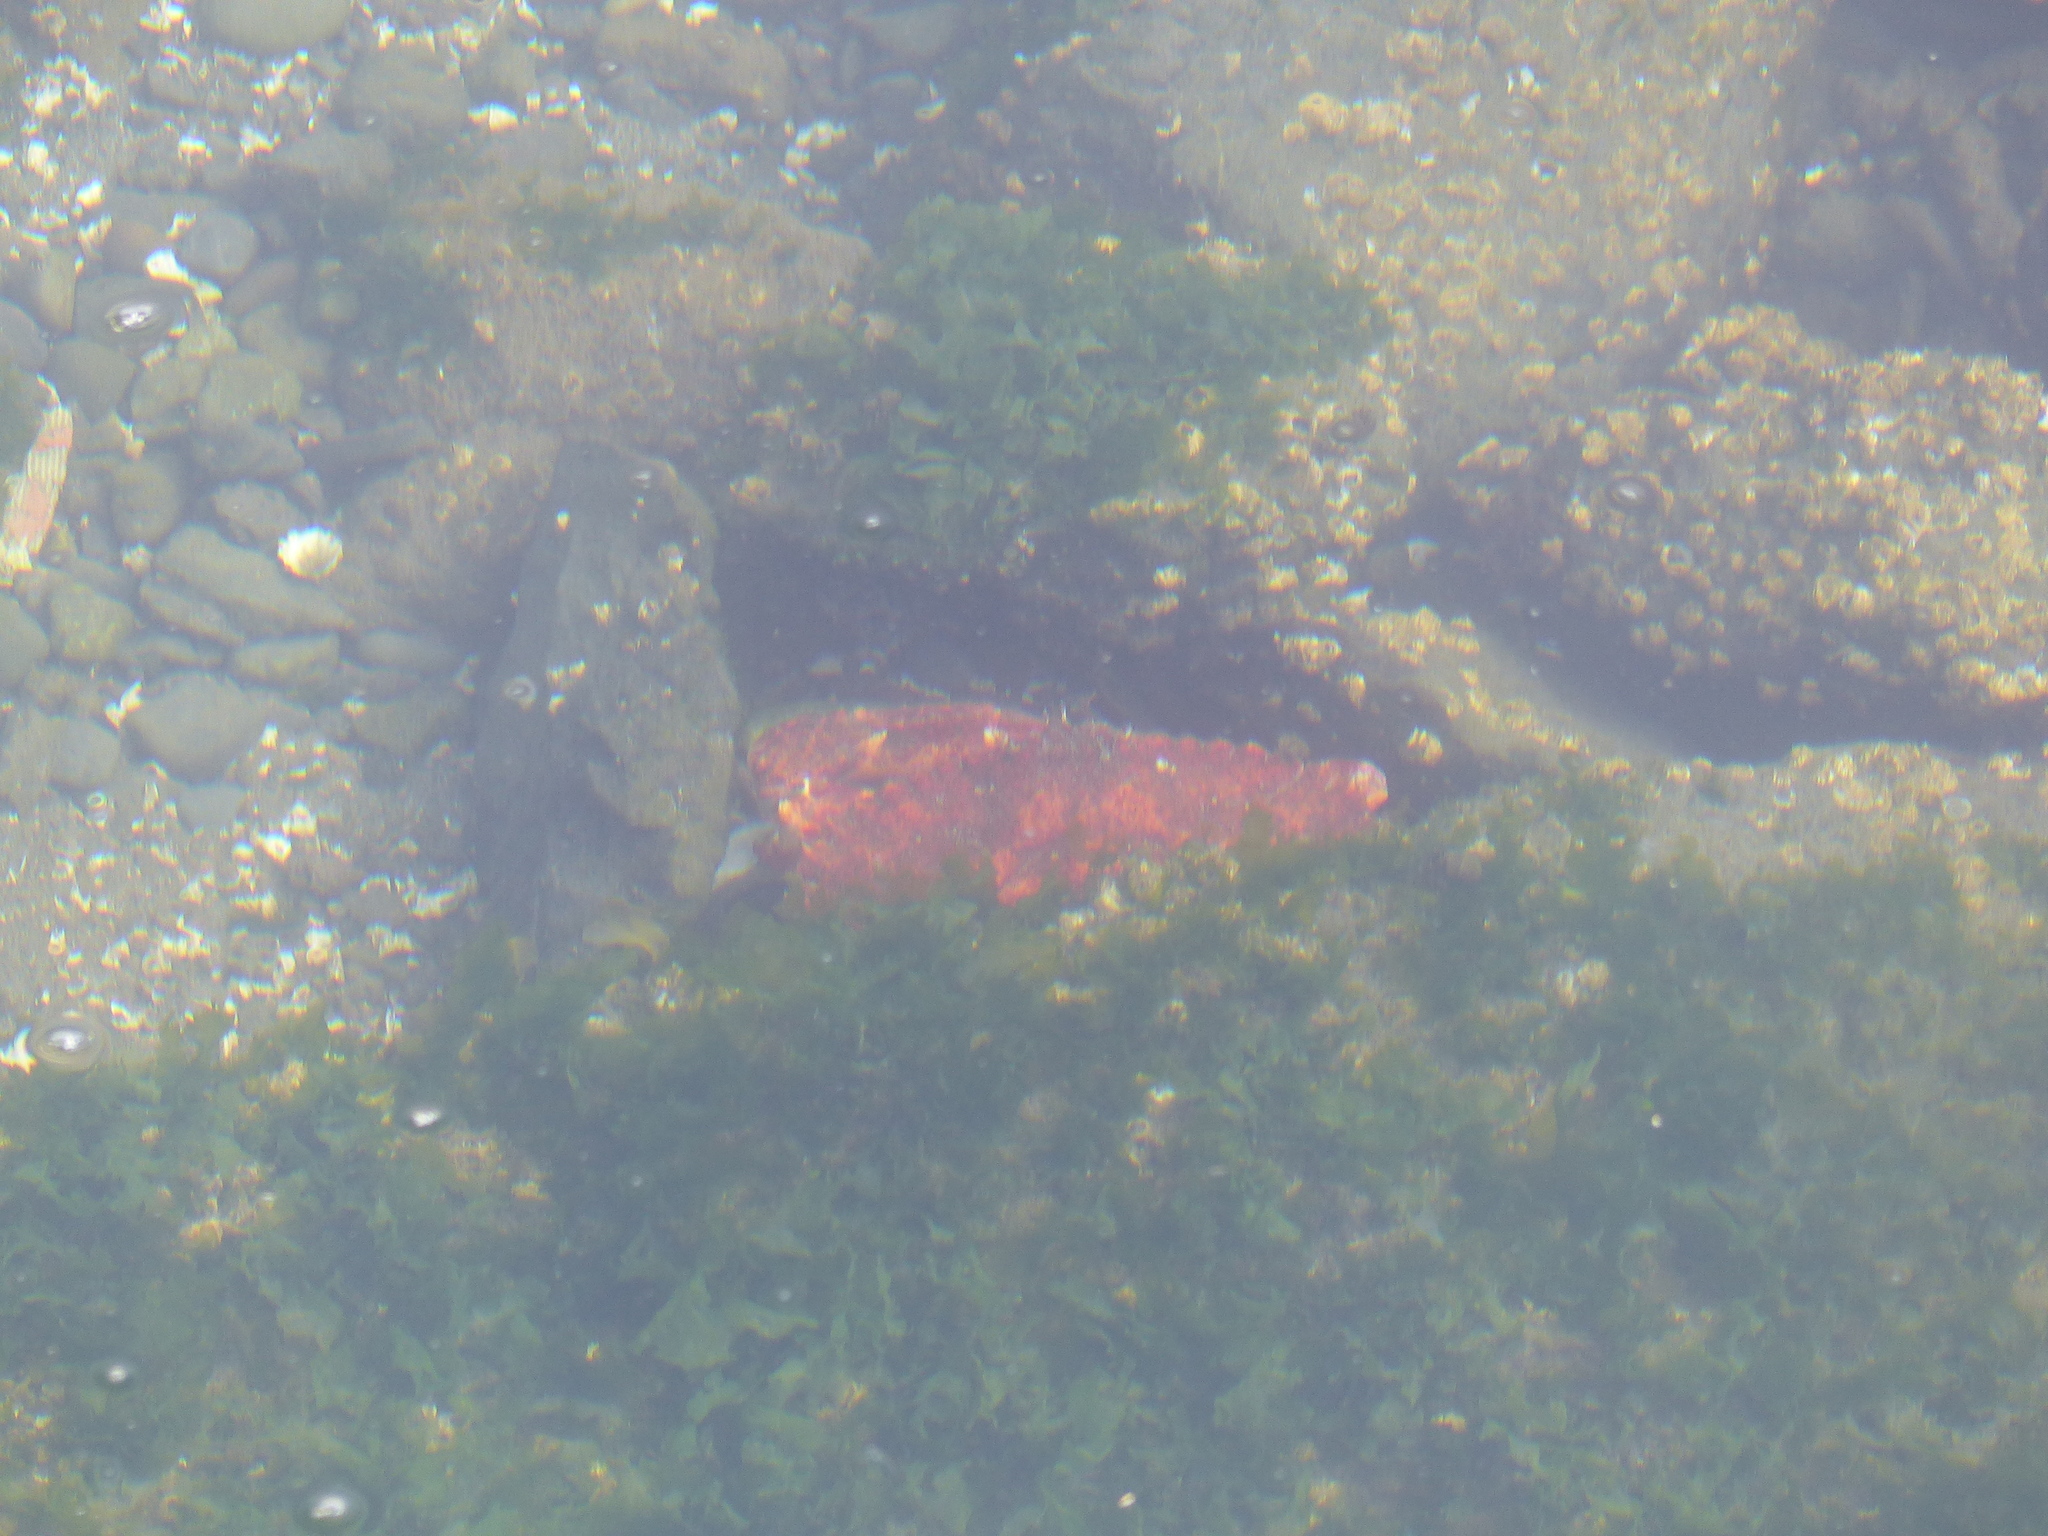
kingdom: Animalia
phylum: Arthropoda
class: Malacostraca
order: Decapoda
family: Cancridae
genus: Cancer
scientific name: Cancer productus
